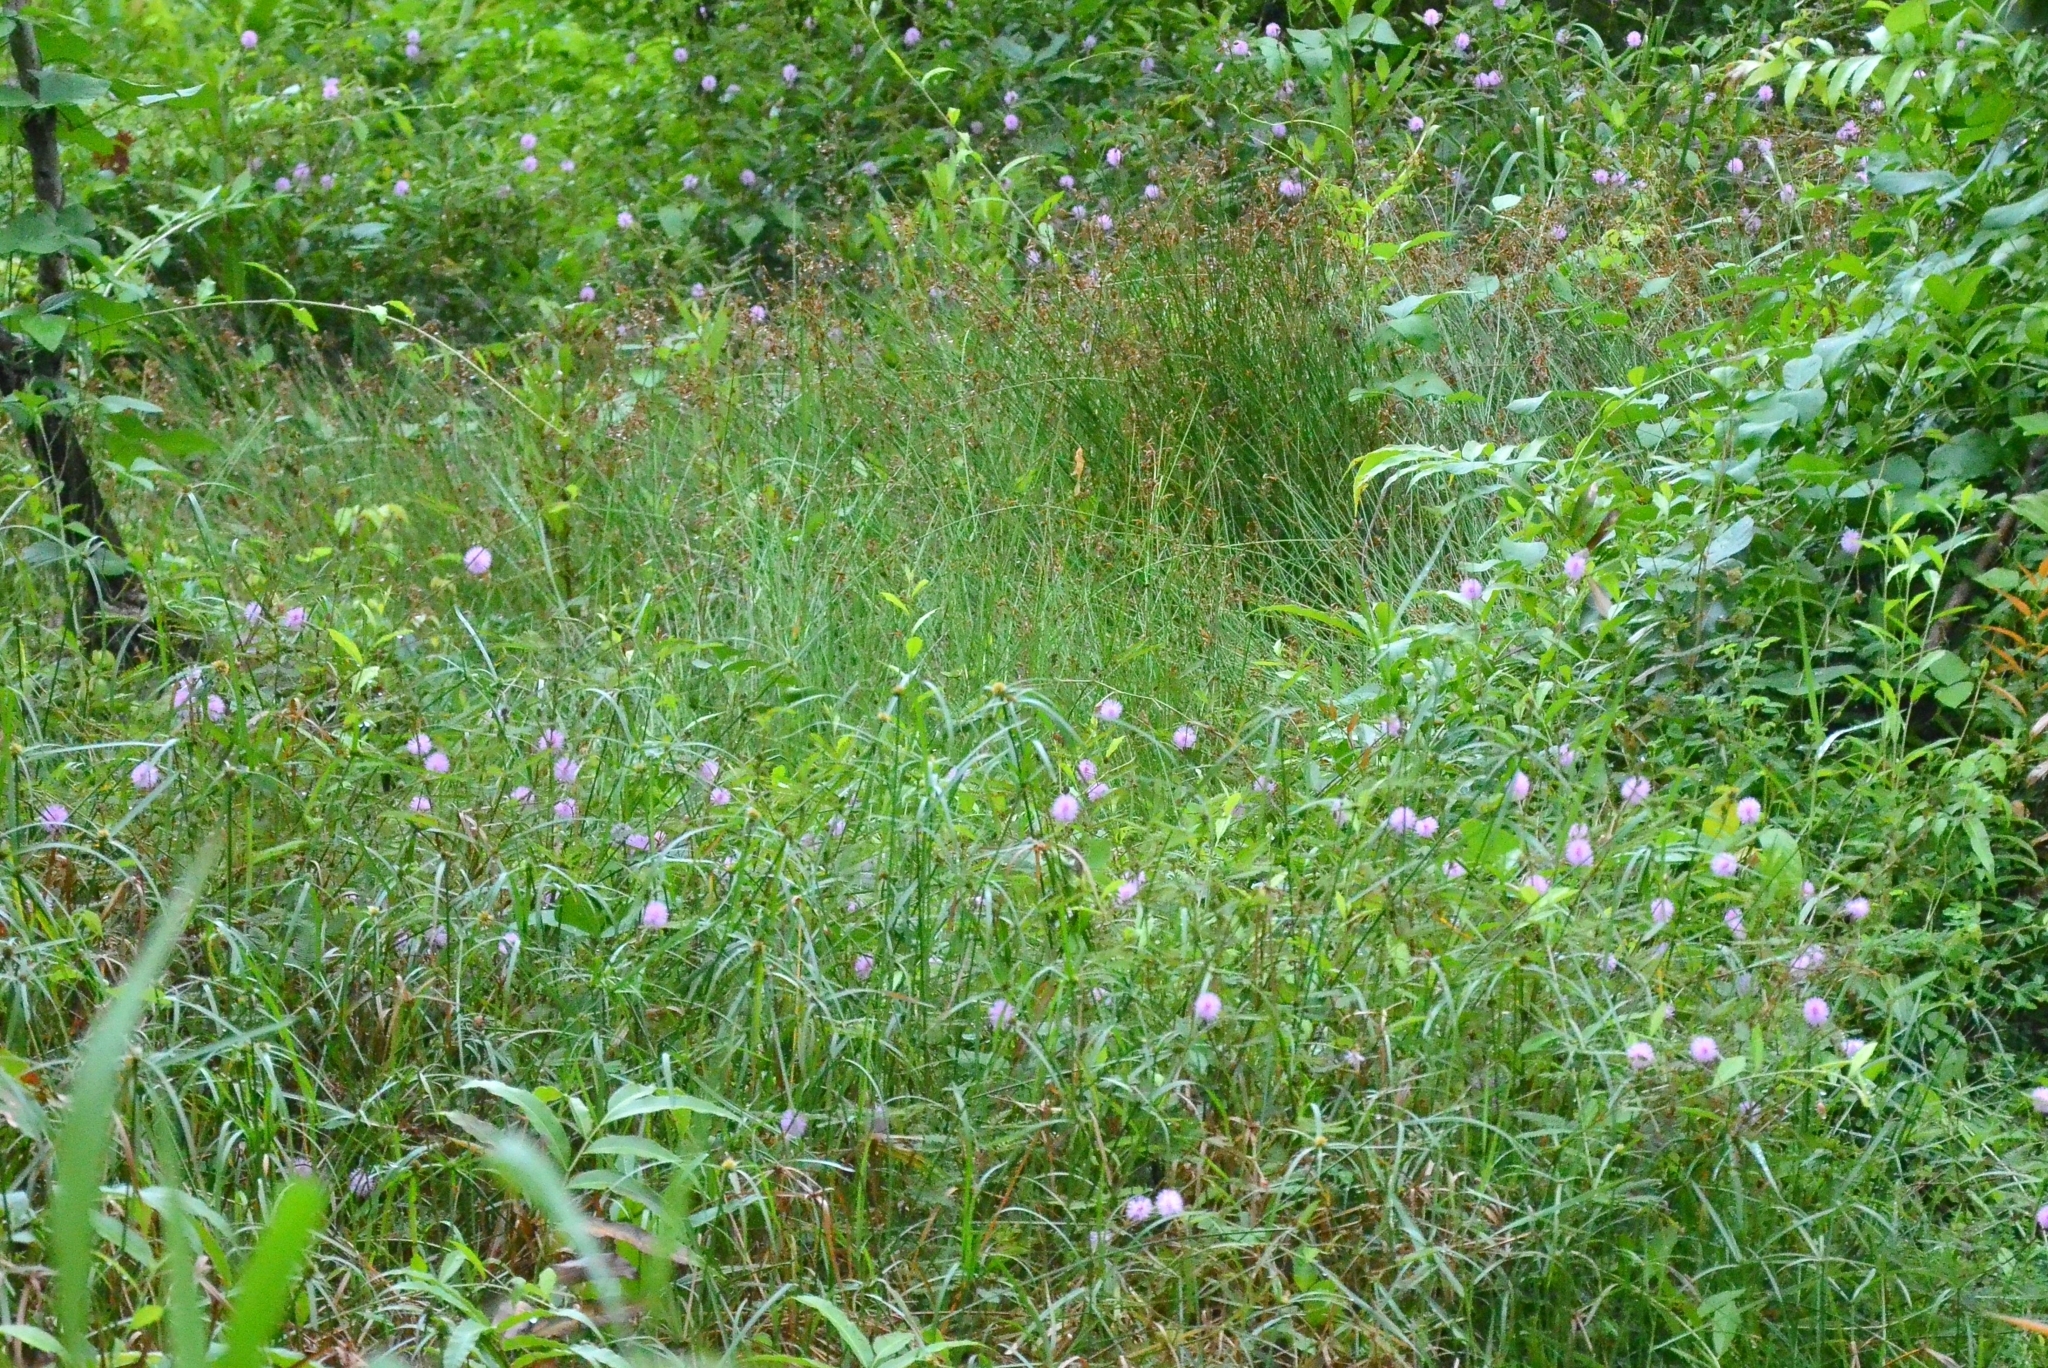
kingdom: Plantae
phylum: Tracheophyta
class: Magnoliopsida
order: Fabales
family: Fabaceae
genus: Mimosa
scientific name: Mimosa pudica
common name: Sensitive plant
